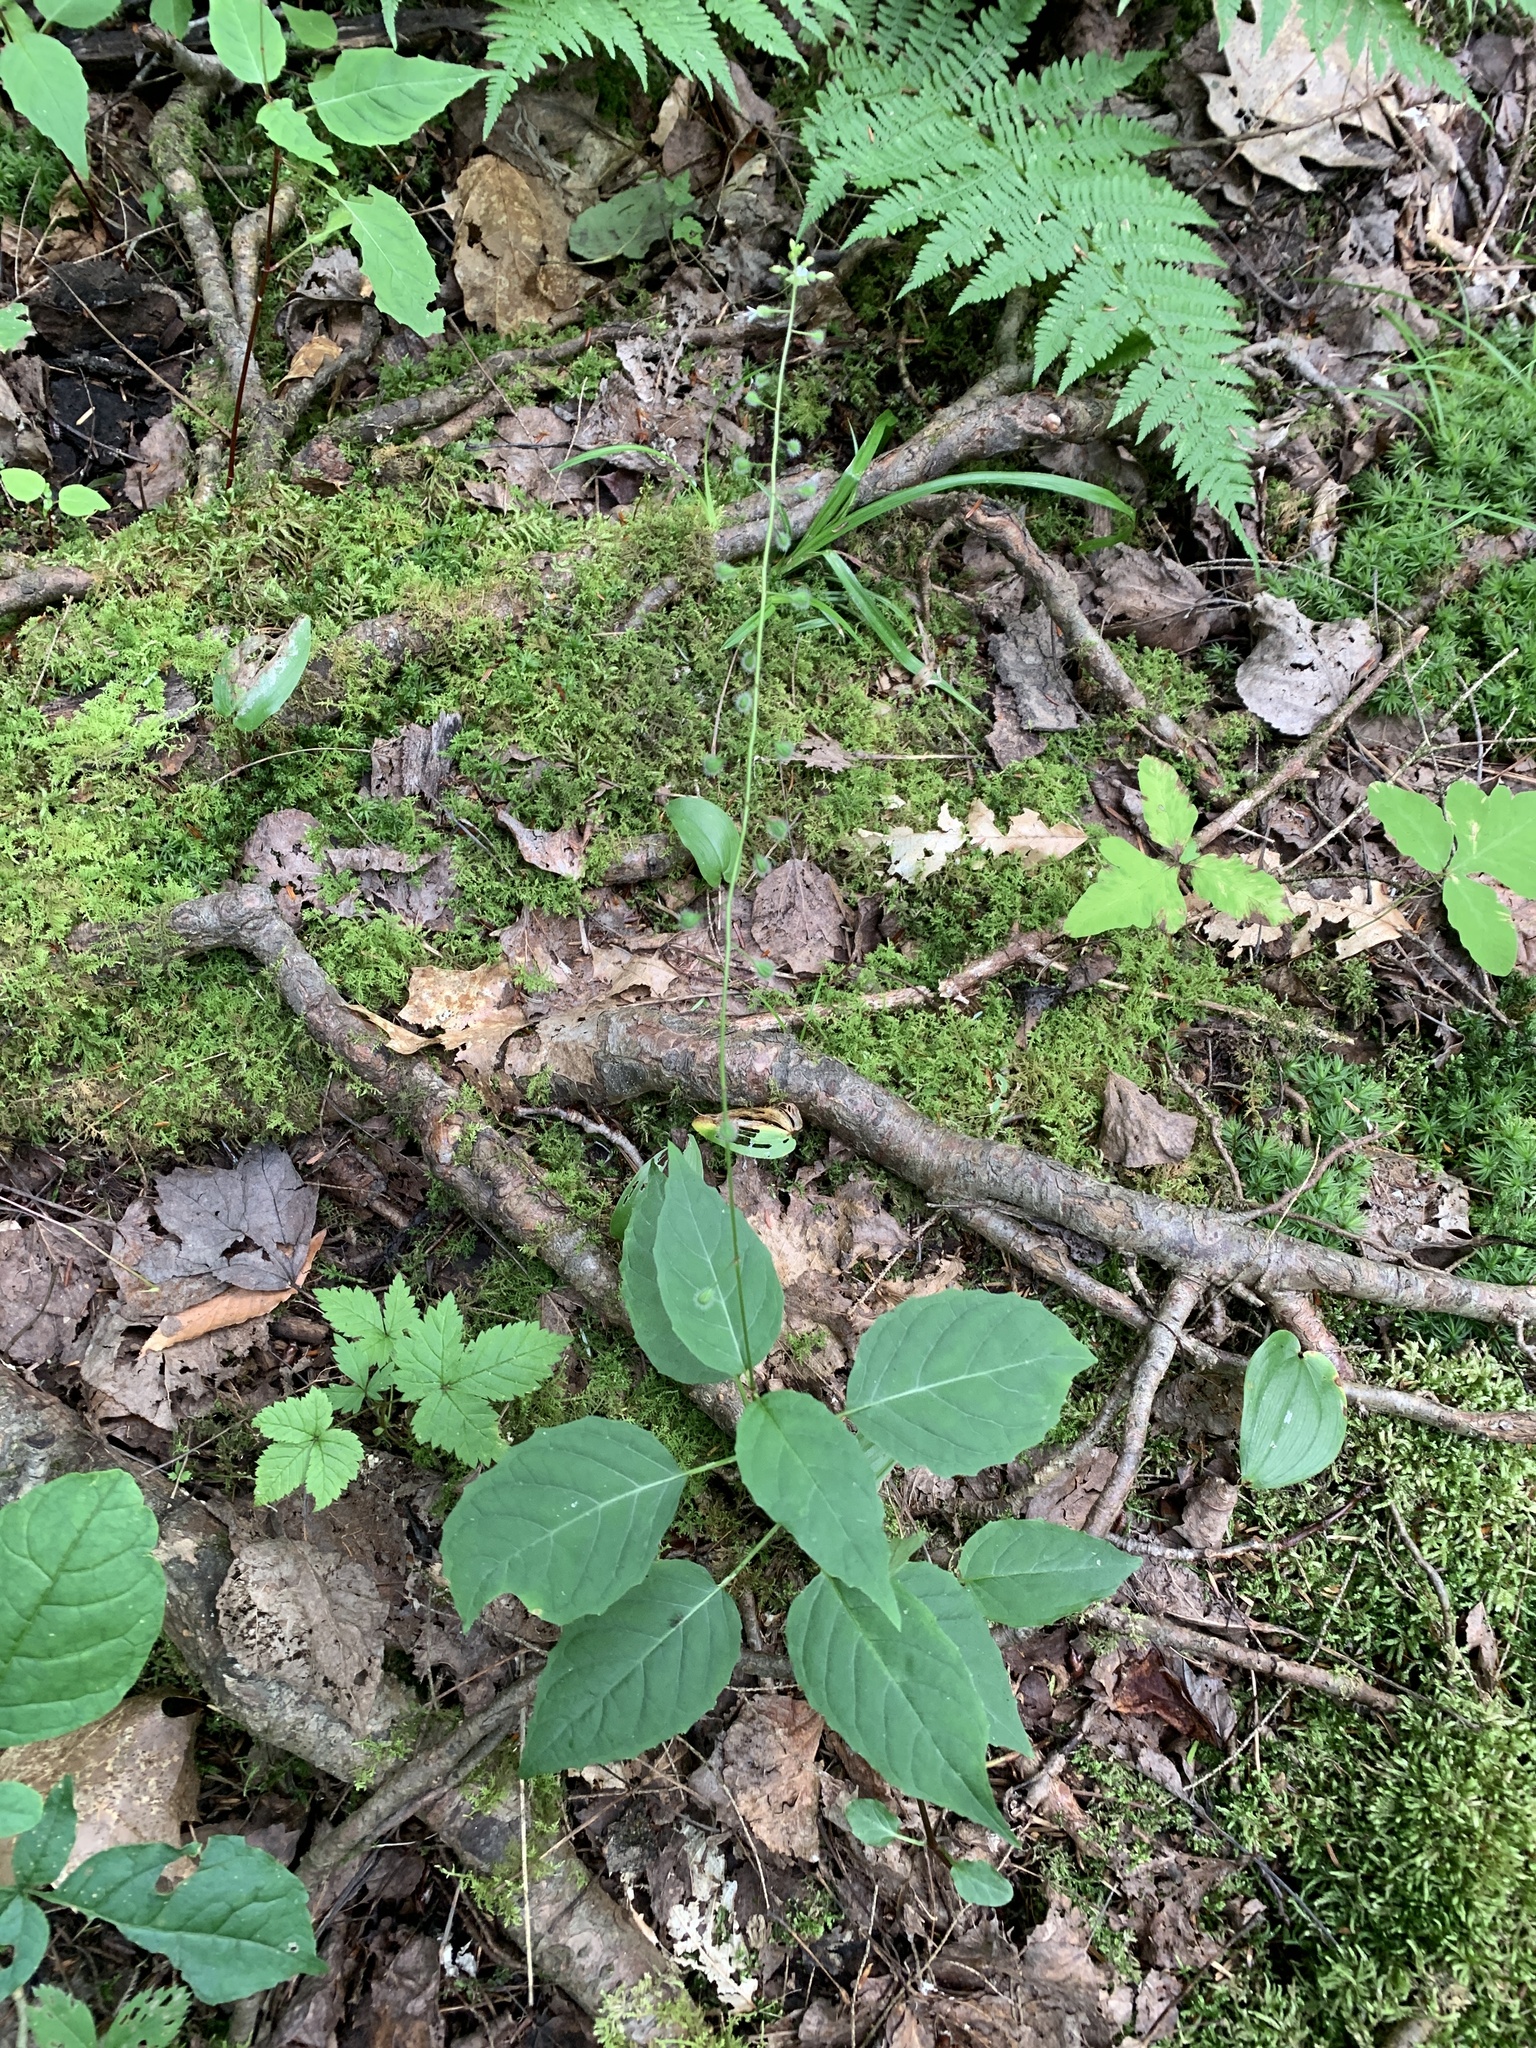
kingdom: Plantae
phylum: Tracheophyta
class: Magnoliopsida
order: Myrtales
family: Onagraceae
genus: Circaea
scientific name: Circaea canadensis
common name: Broad-leaved enchanter's nightshade
